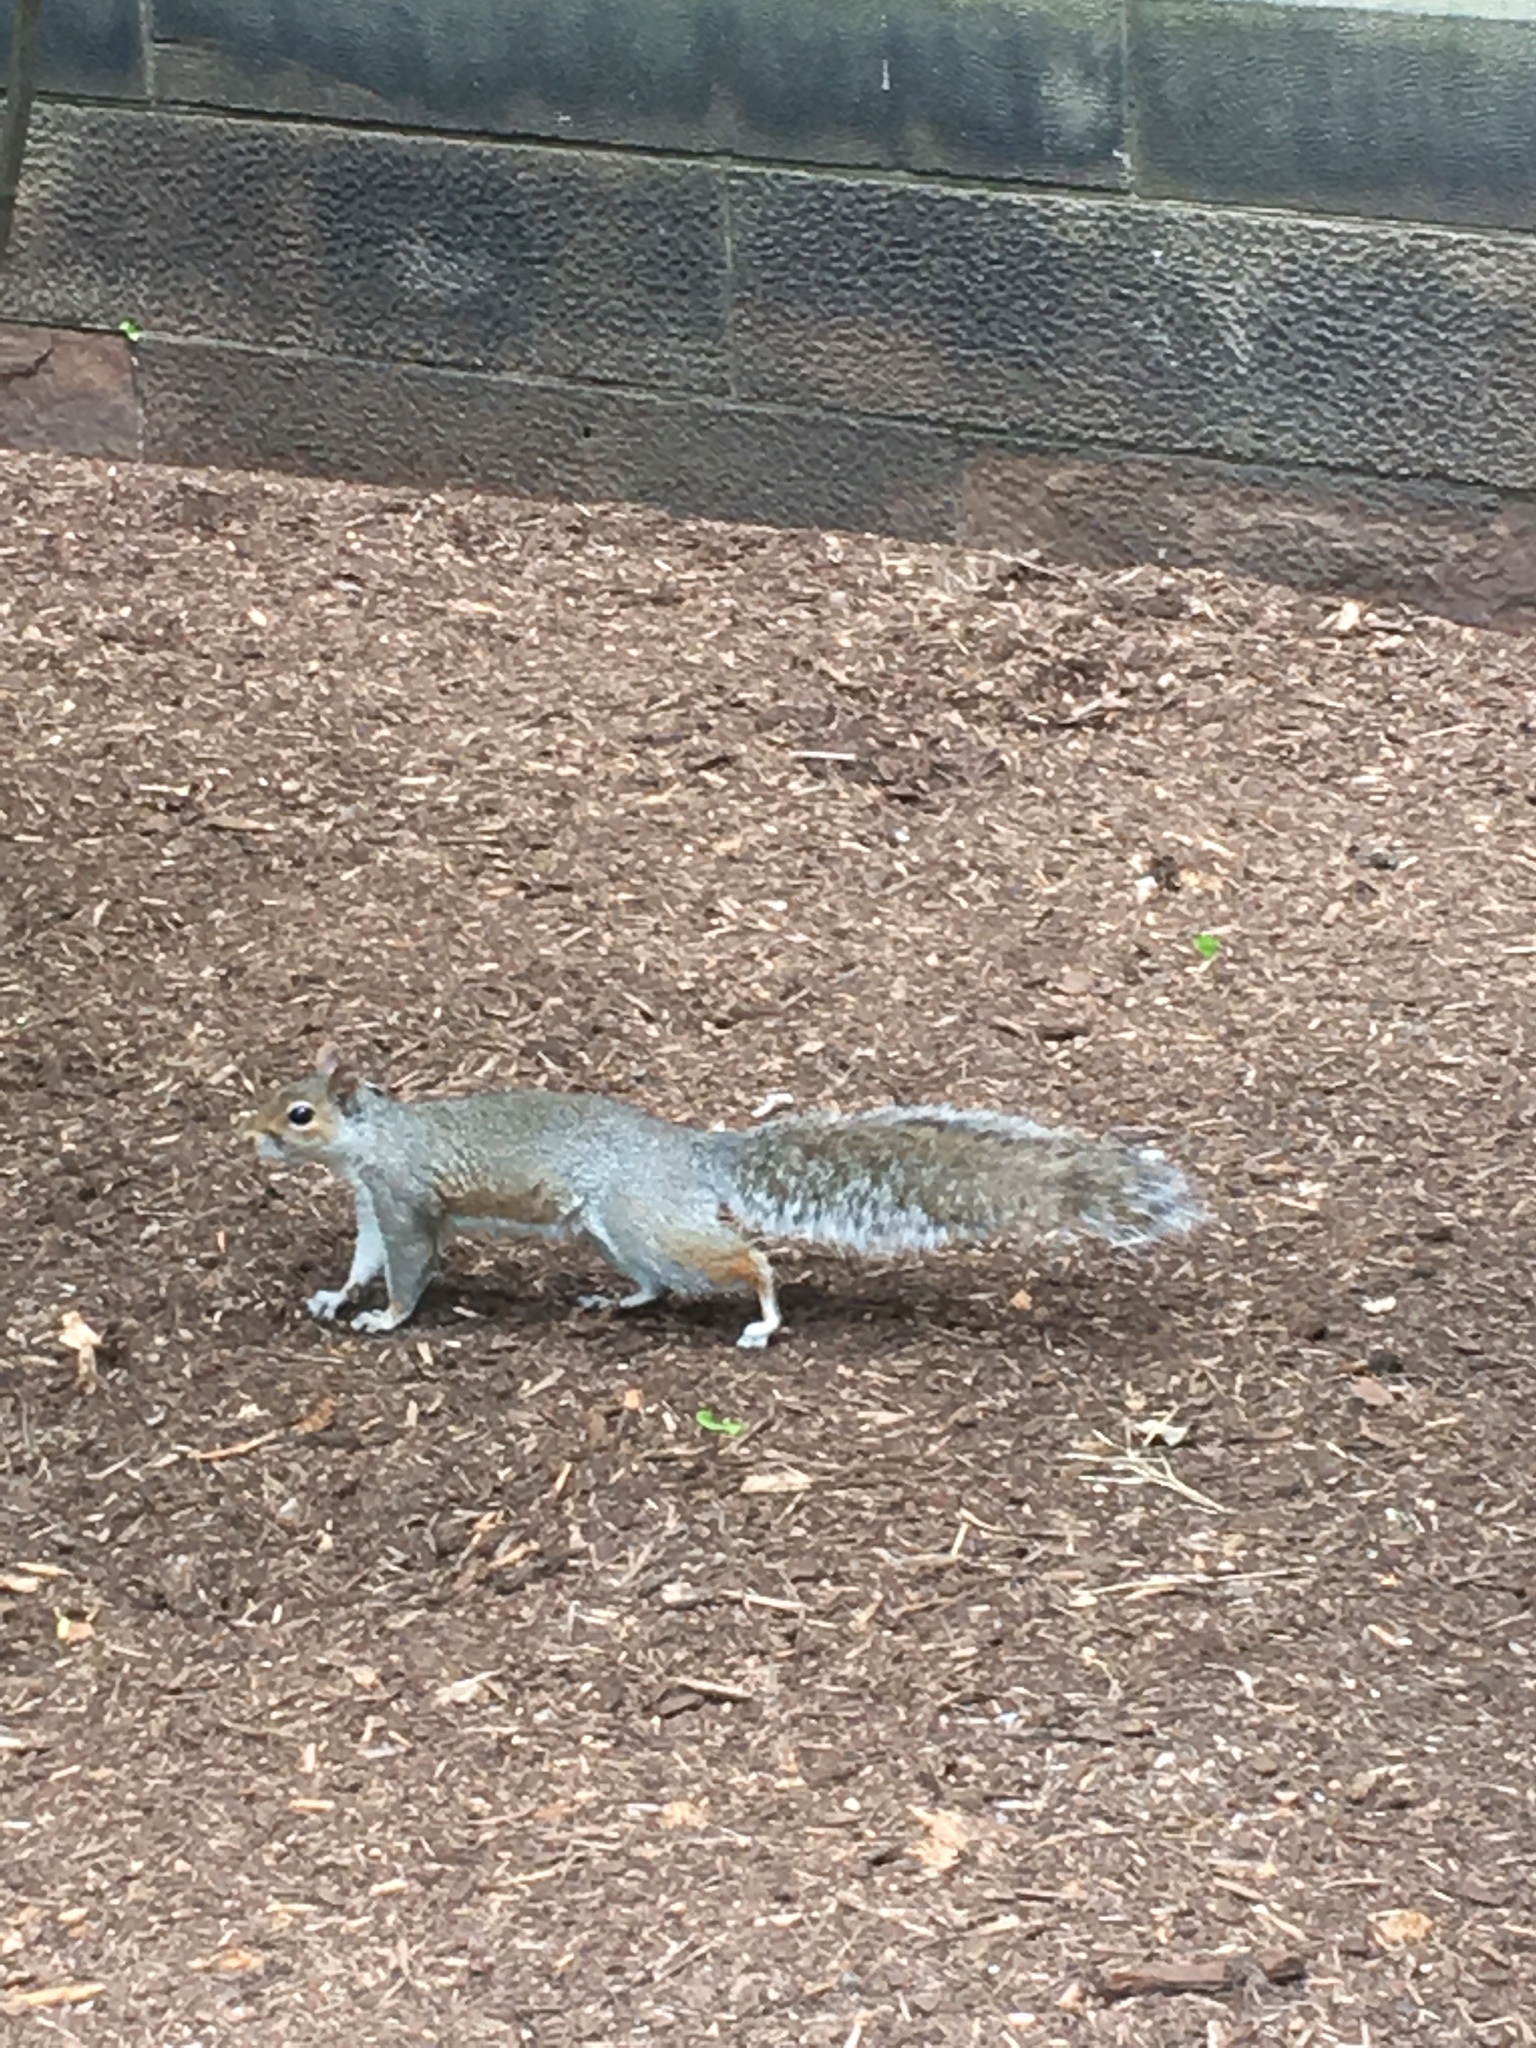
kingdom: Animalia
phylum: Chordata
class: Mammalia
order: Rodentia
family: Sciuridae
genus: Sciurus
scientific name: Sciurus carolinensis
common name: Eastern gray squirrel
